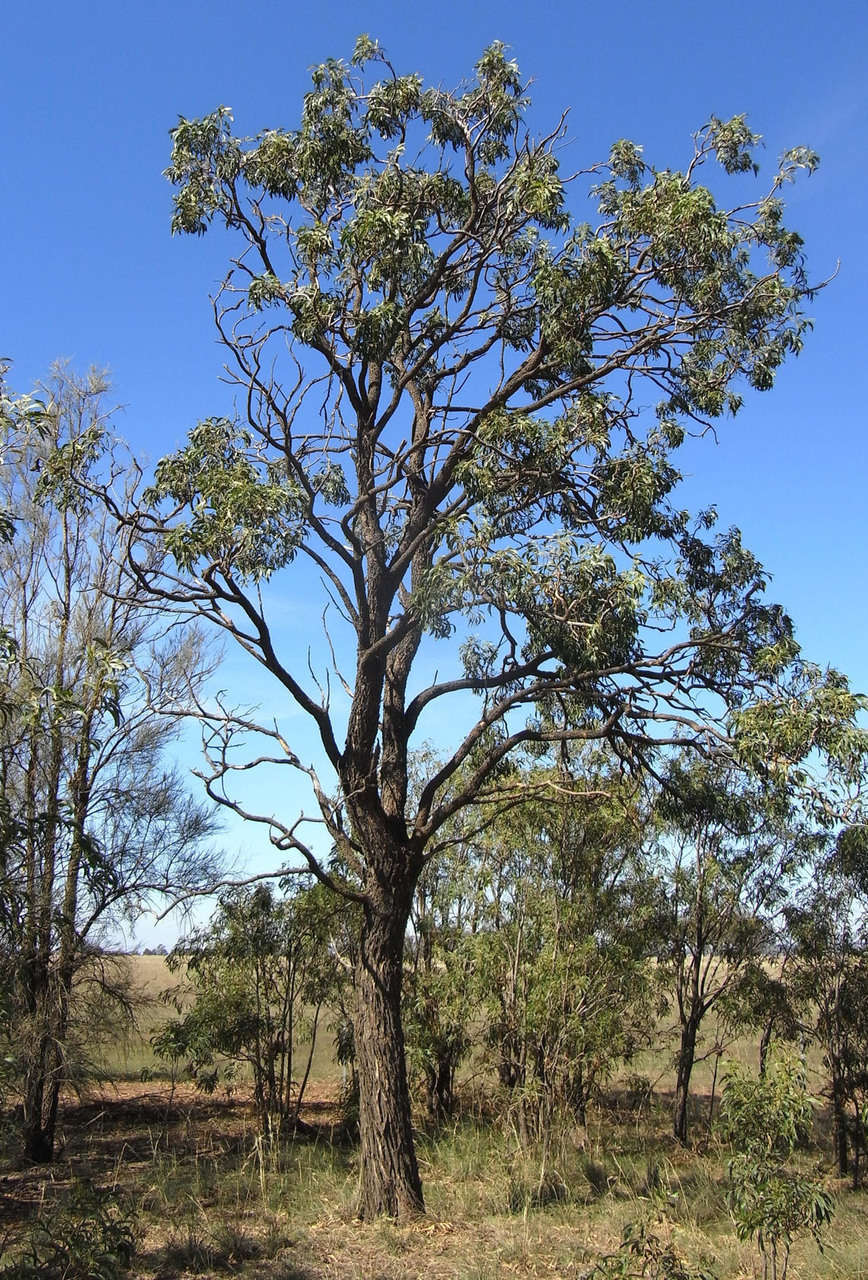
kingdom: Plantae
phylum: Tracheophyta
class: Magnoliopsida
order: Fabales
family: Fabaceae
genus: Acacia
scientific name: Acacia implexa
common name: Black wattle
